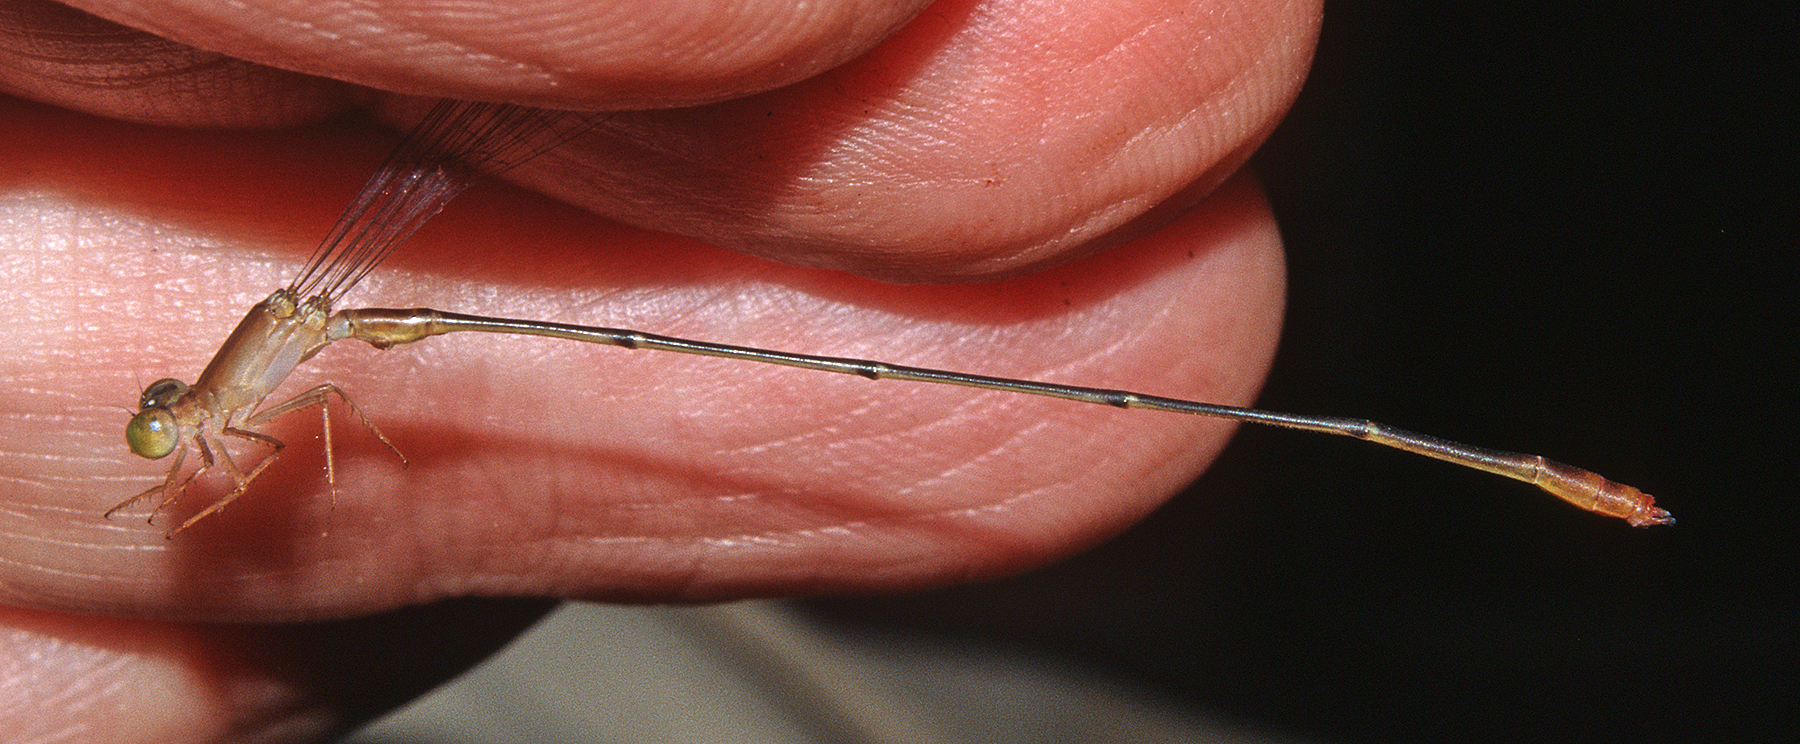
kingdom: Animalia
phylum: Arthropoda
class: Insecta
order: Odonata
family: Coenagrionidae
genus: Metaleptobasis
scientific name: Metaleptobasis falcifera
